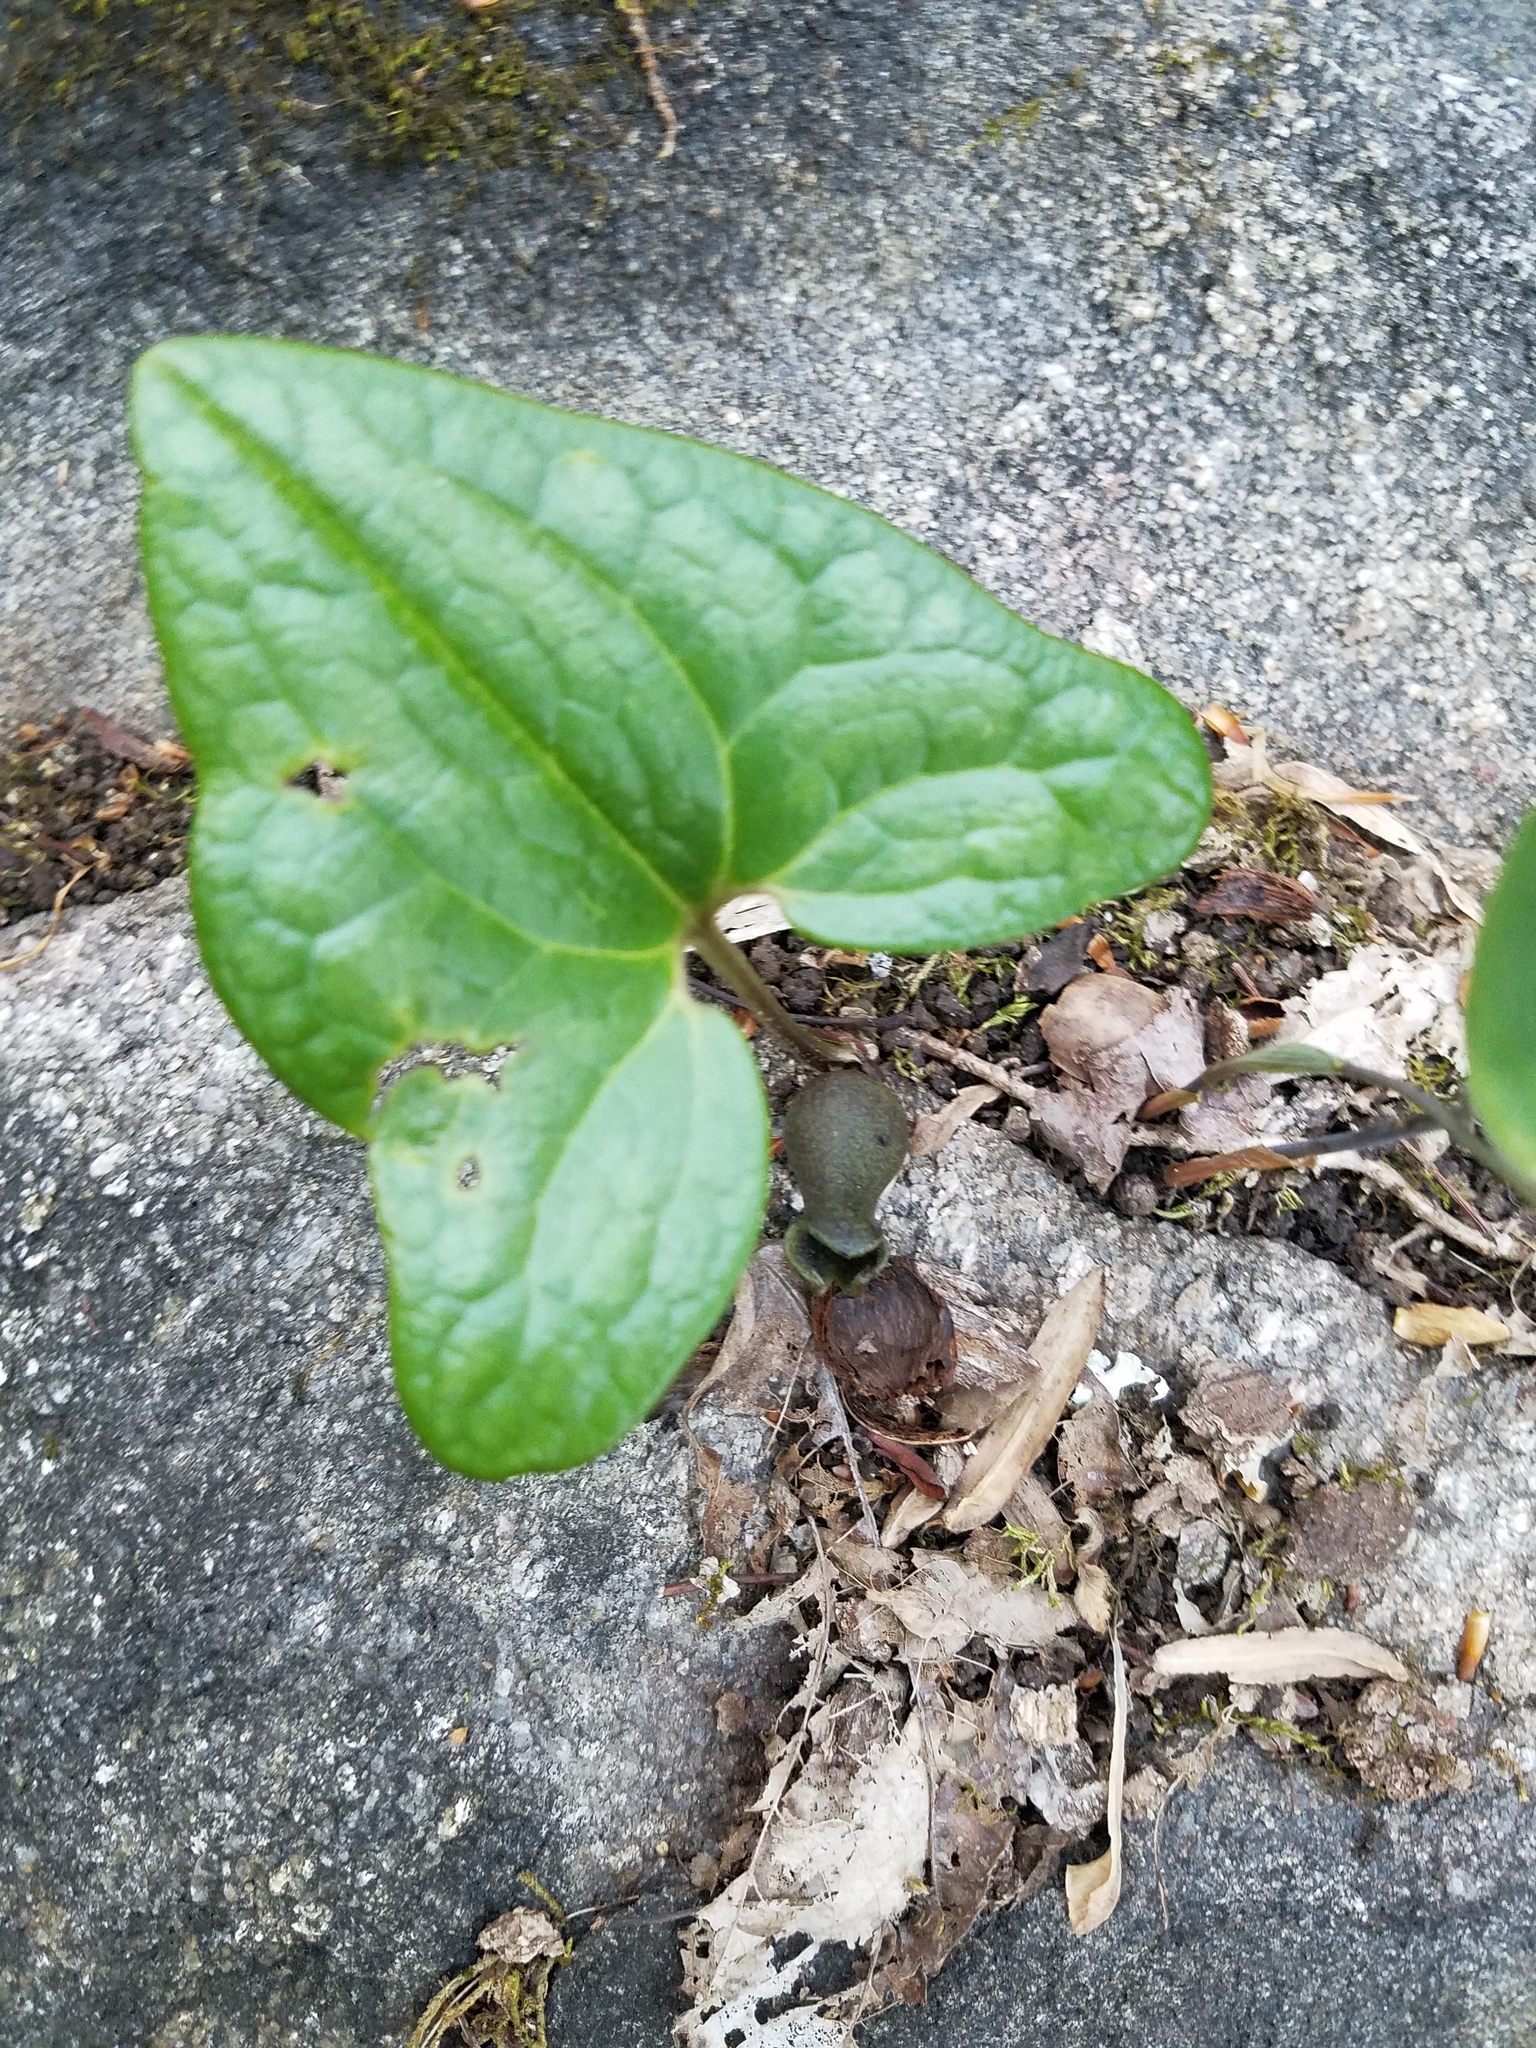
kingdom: Plantae
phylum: Tracheophyta
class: Magnoliopsida
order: Piperales
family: Aristolochiaceae
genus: Hexastylis
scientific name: Hexastylis arifolia
